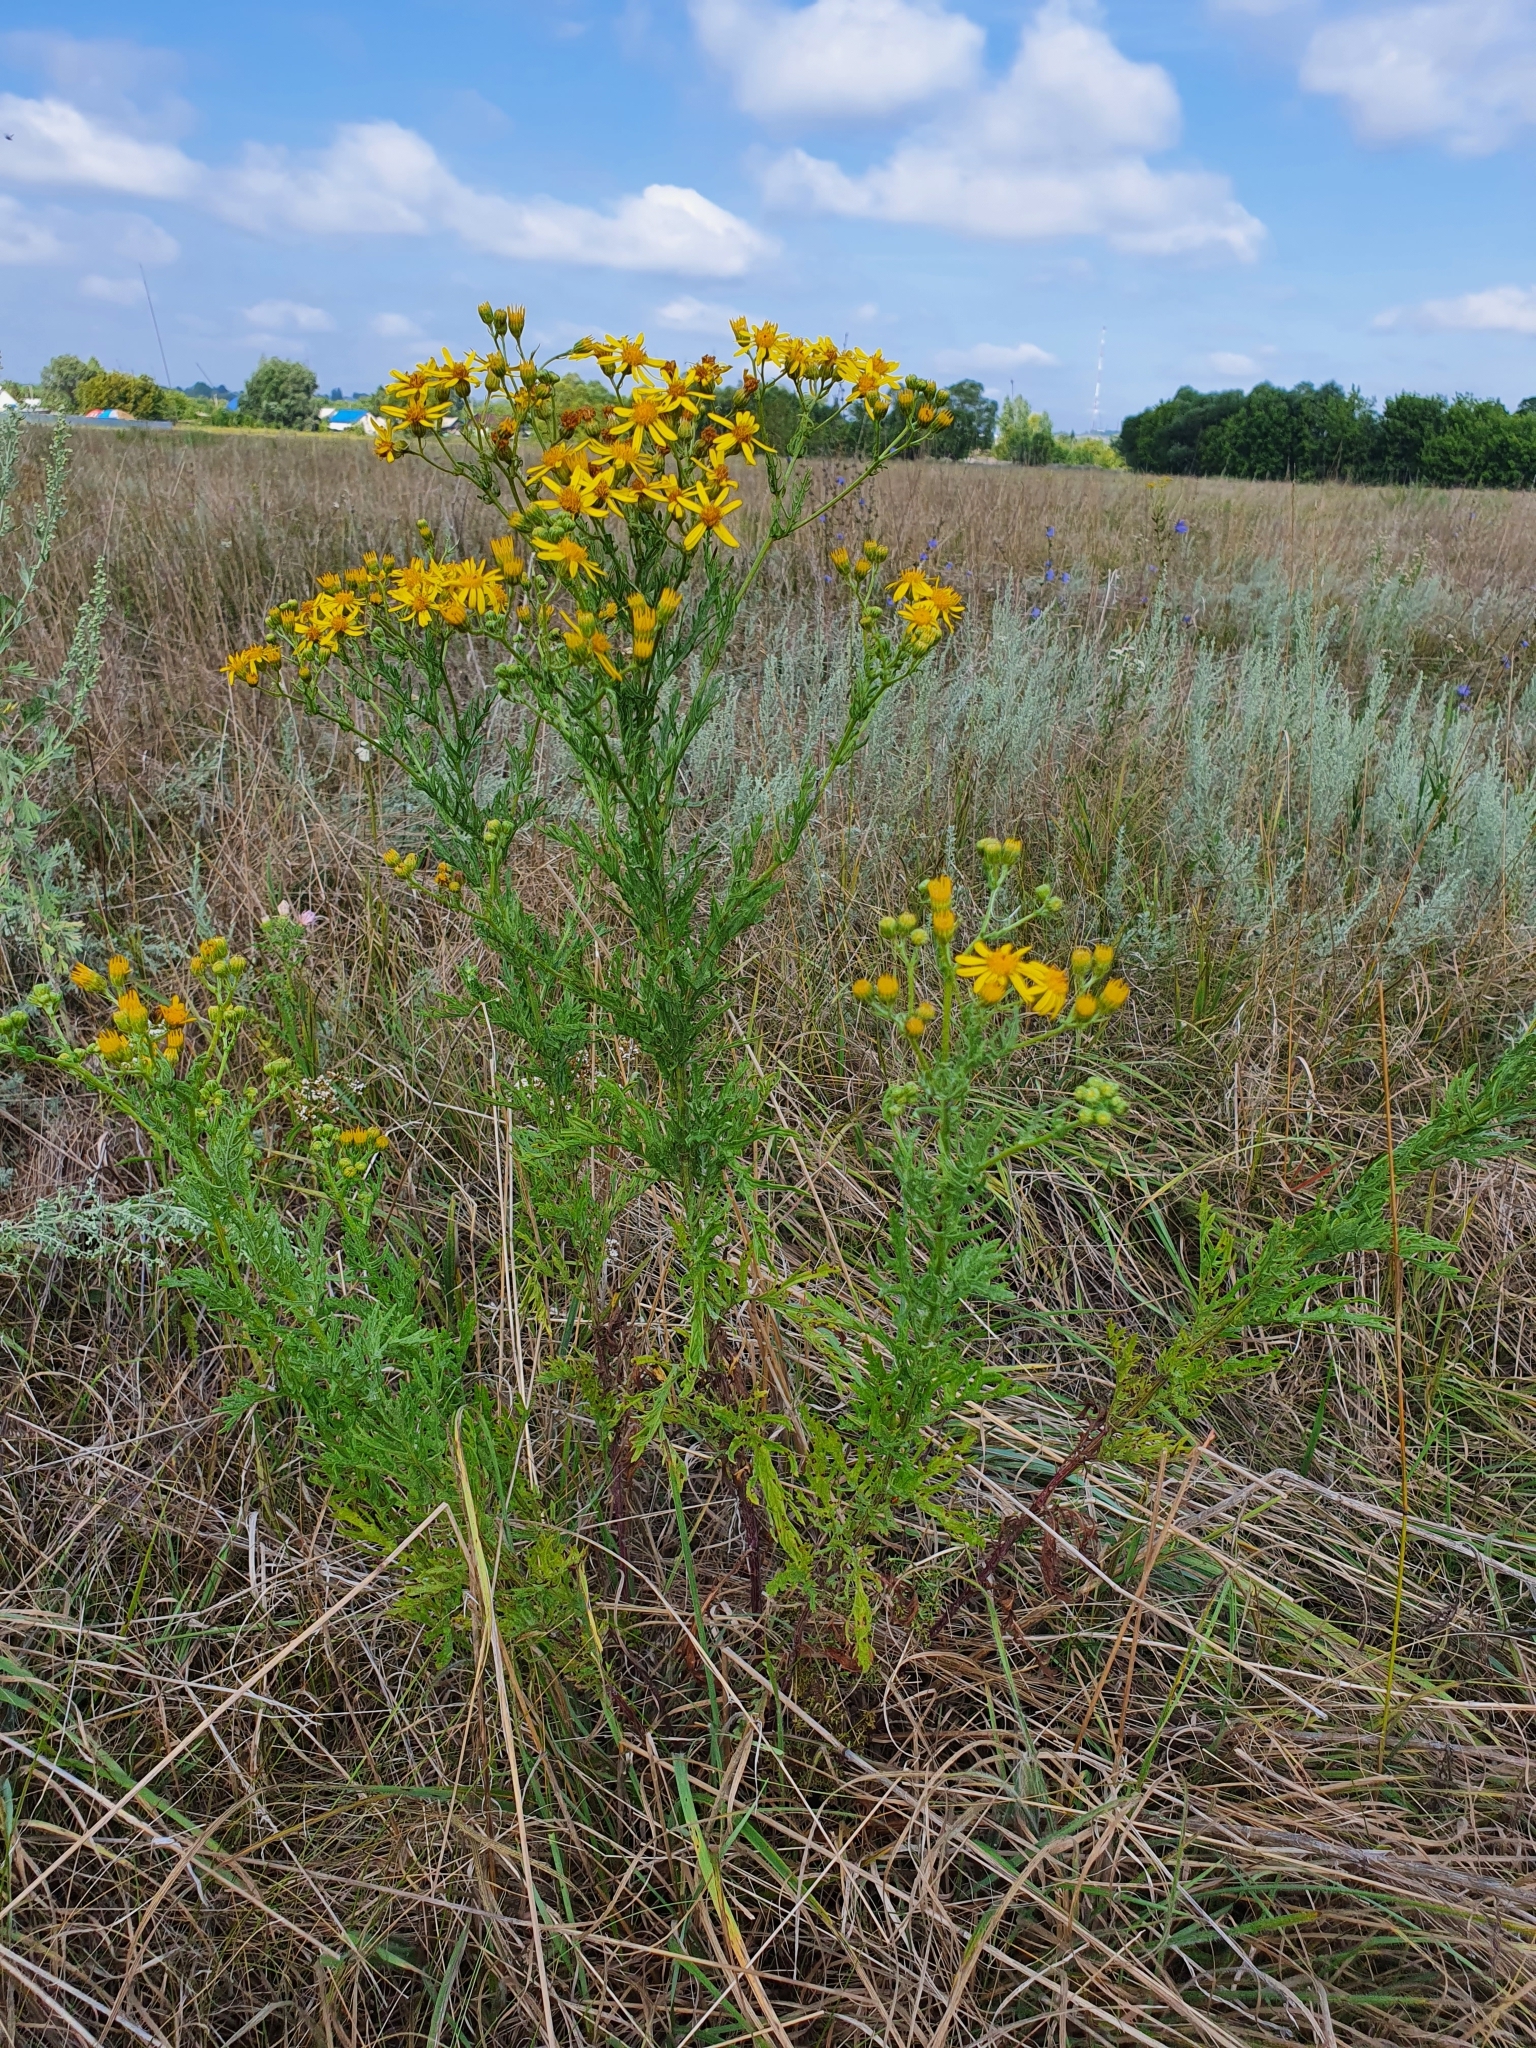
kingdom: Plantae
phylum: Tracheophyta
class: Magnoliopsida
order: Asterales
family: Asteraceae
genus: Jacobaea
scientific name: Jacobaea erucifolia
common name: Hoary ragwort
